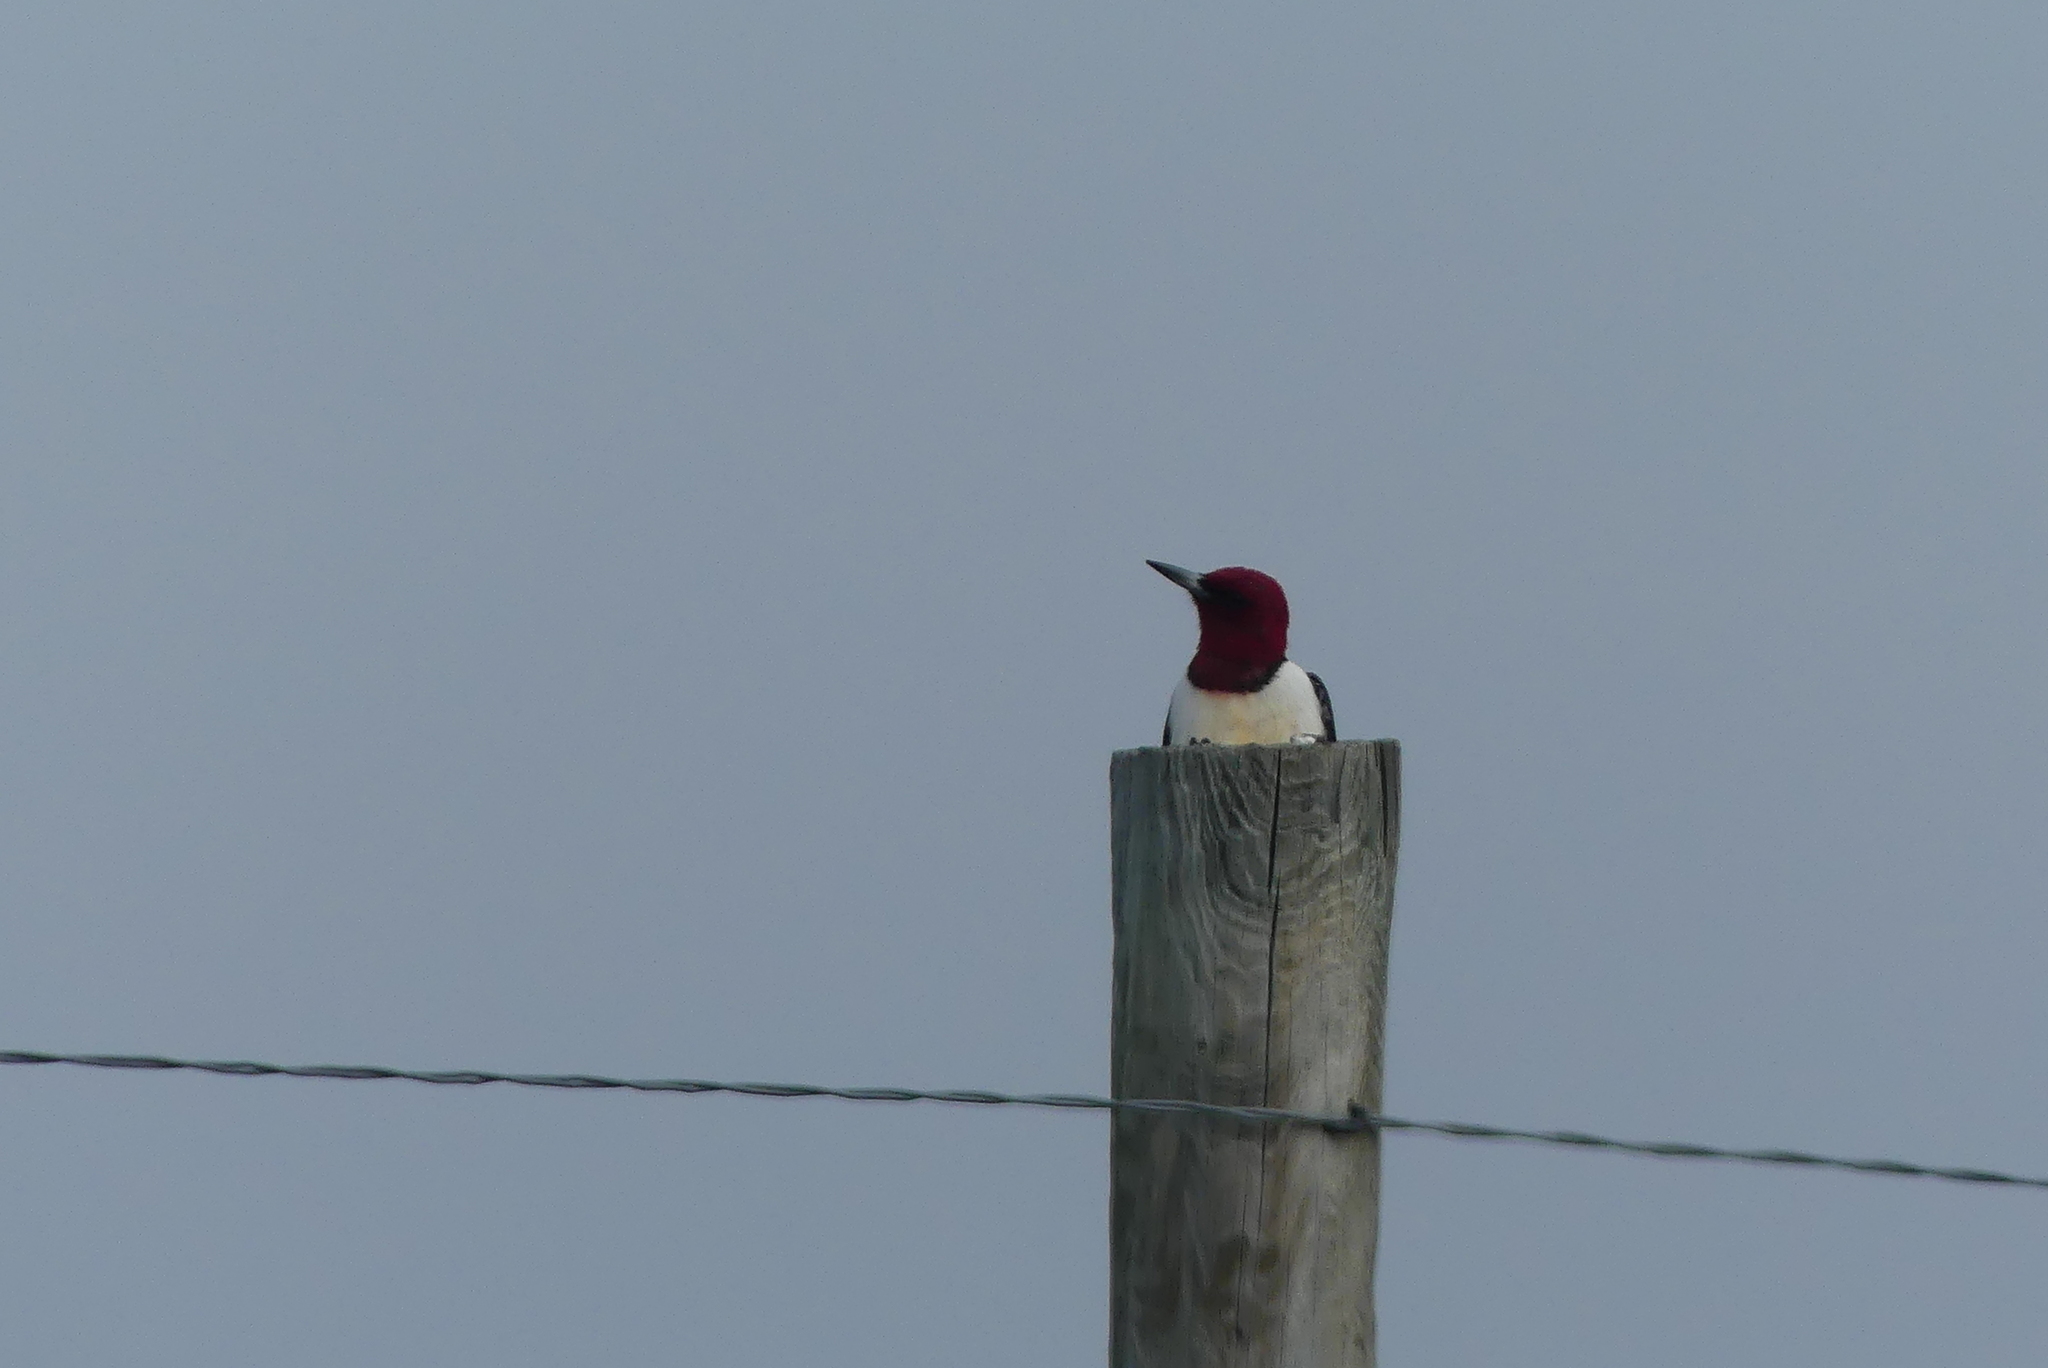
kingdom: Animalia
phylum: Chordata
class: Aves
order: Piciformes
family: Picidae
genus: Melanerpes
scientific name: Melanerpes erythrocephalus
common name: Red-headed woodpecker
